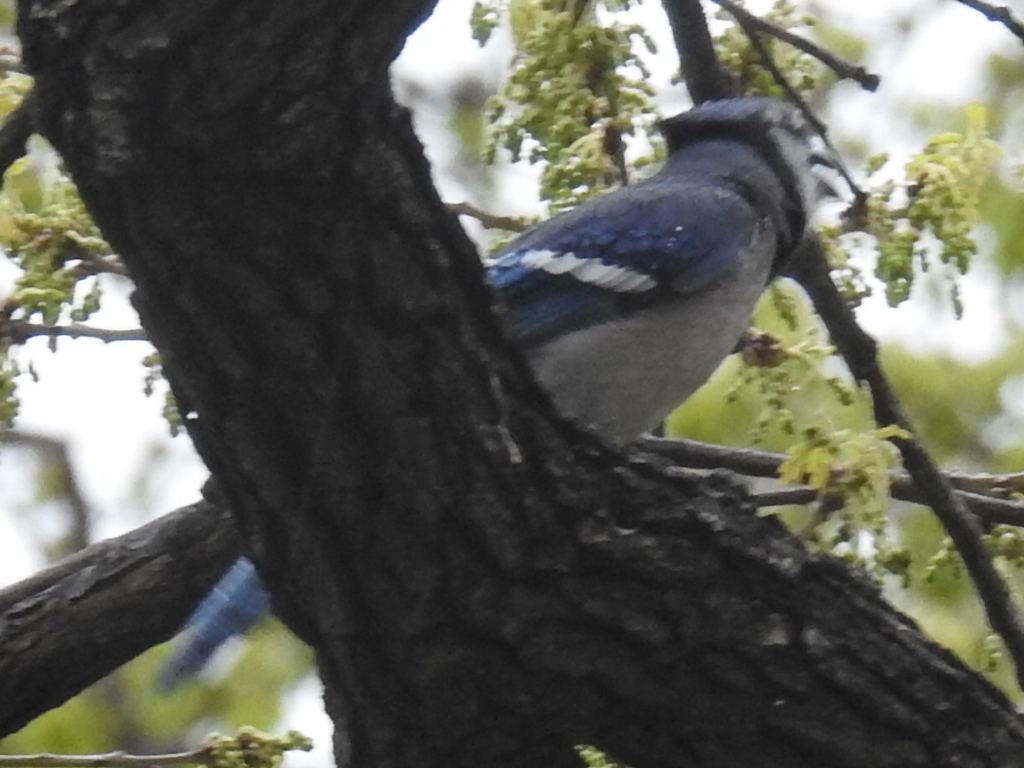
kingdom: Animalia
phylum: Chordata
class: Aves
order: Passeriformes
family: Corvidae
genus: Cyanocitta
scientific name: Cyanocitta cristata
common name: Blue jay
